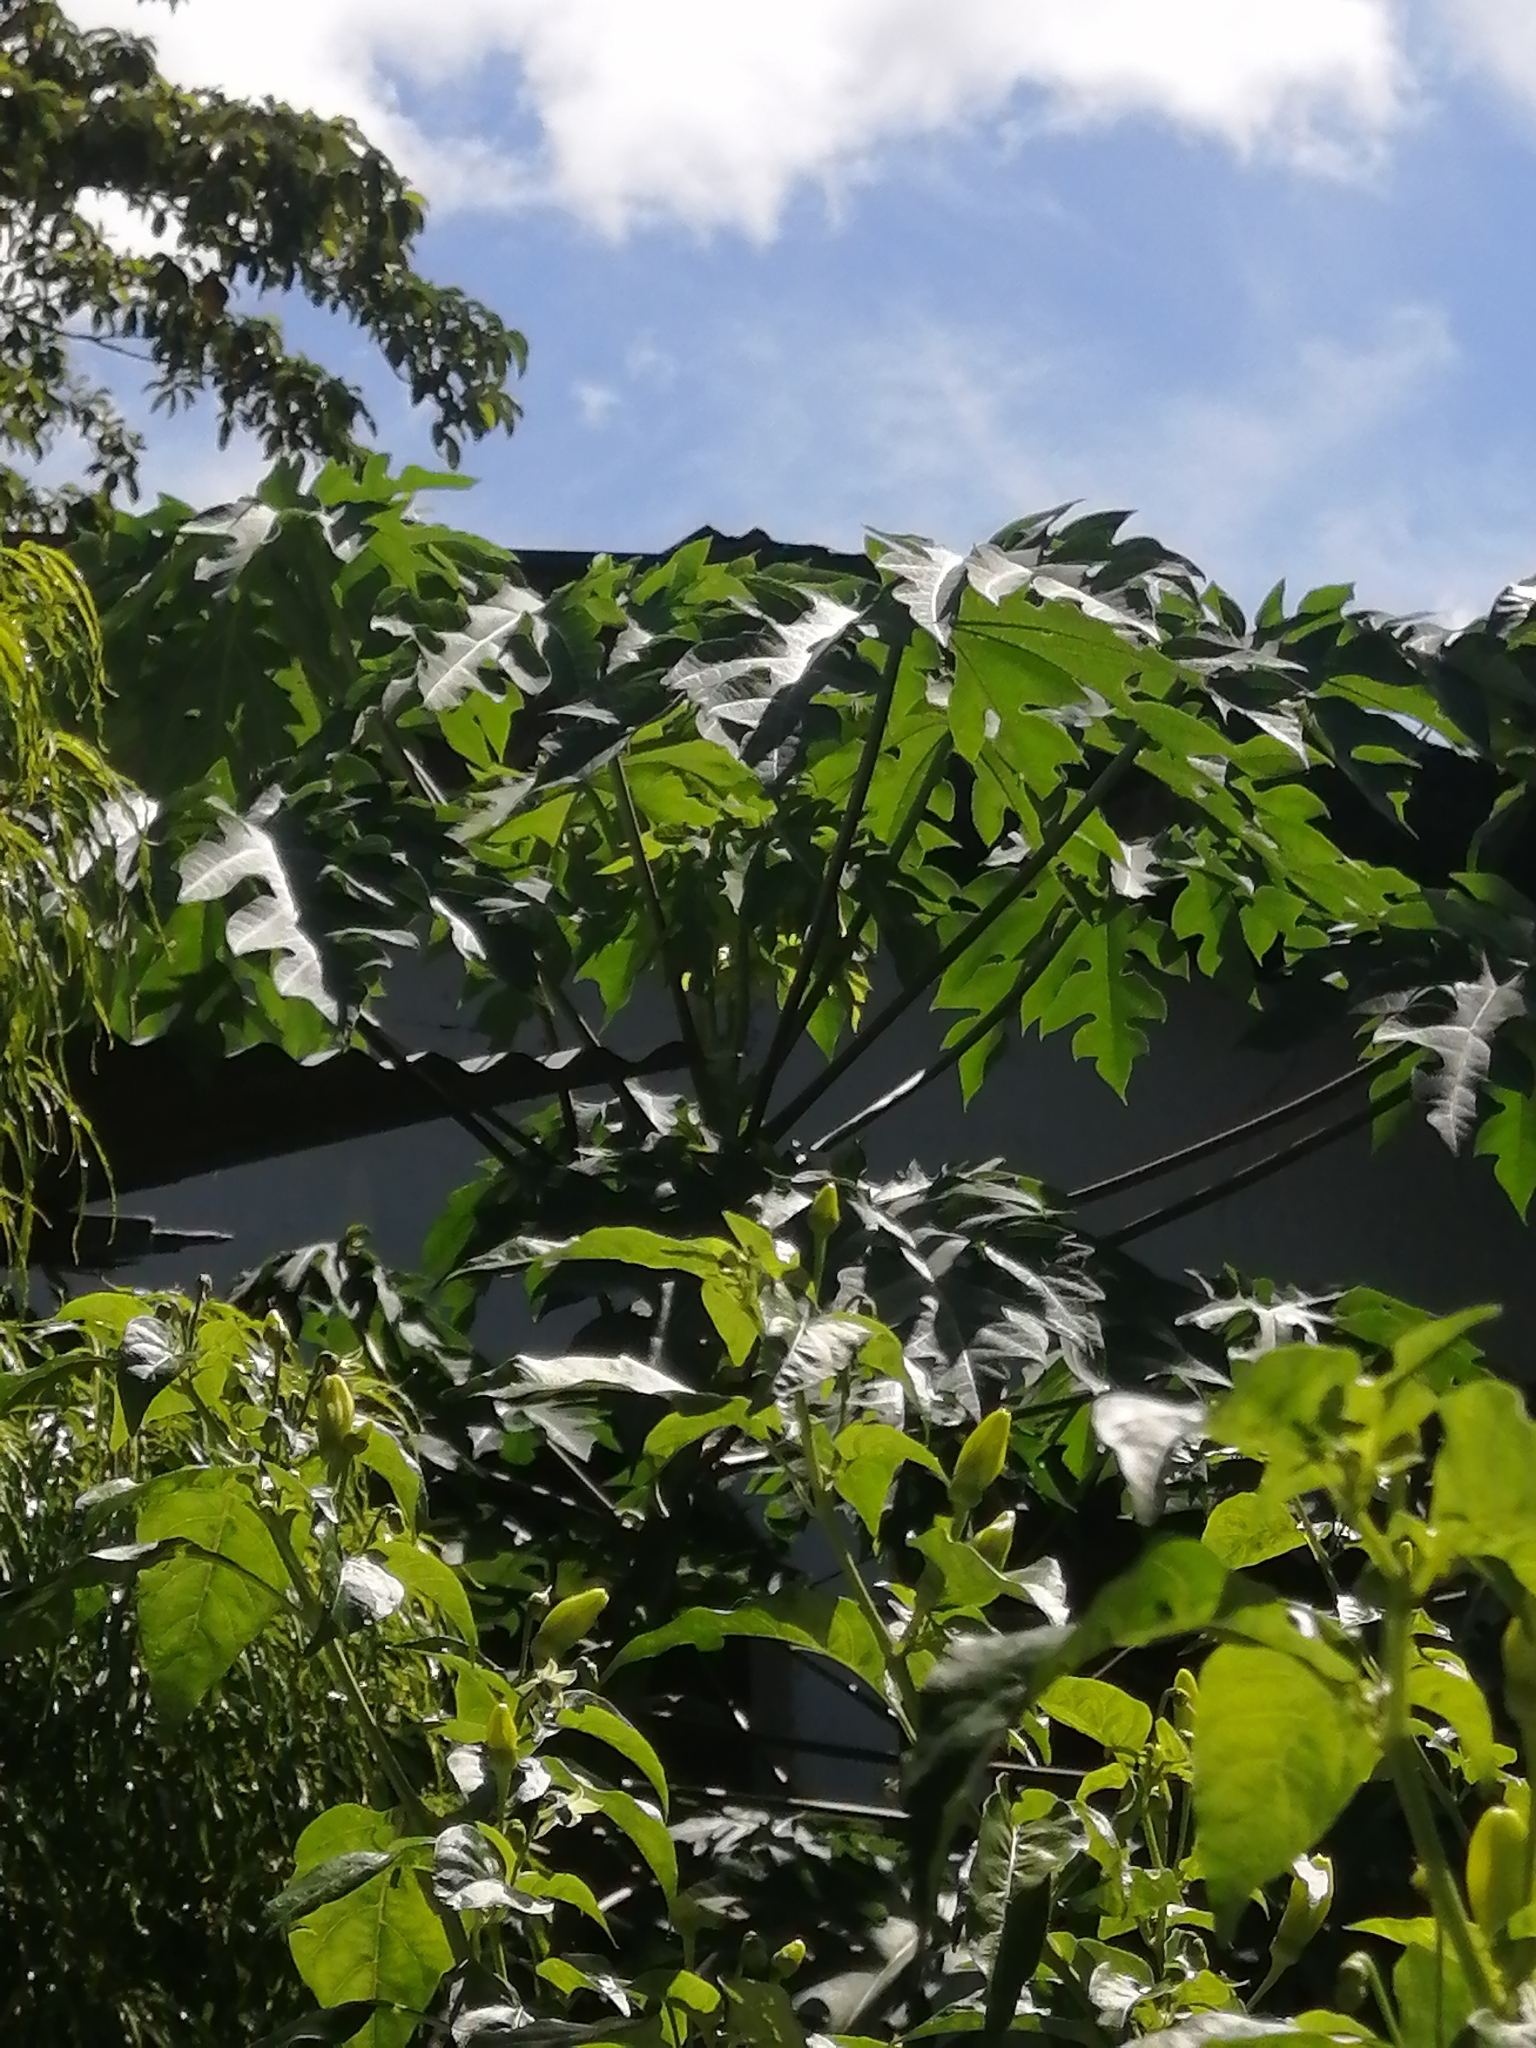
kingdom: Plantae
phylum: Tracheophyta
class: Magnoliopsida
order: Brassicales
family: Caricaceae
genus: Carica
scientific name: Carica papaya
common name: Papaya
